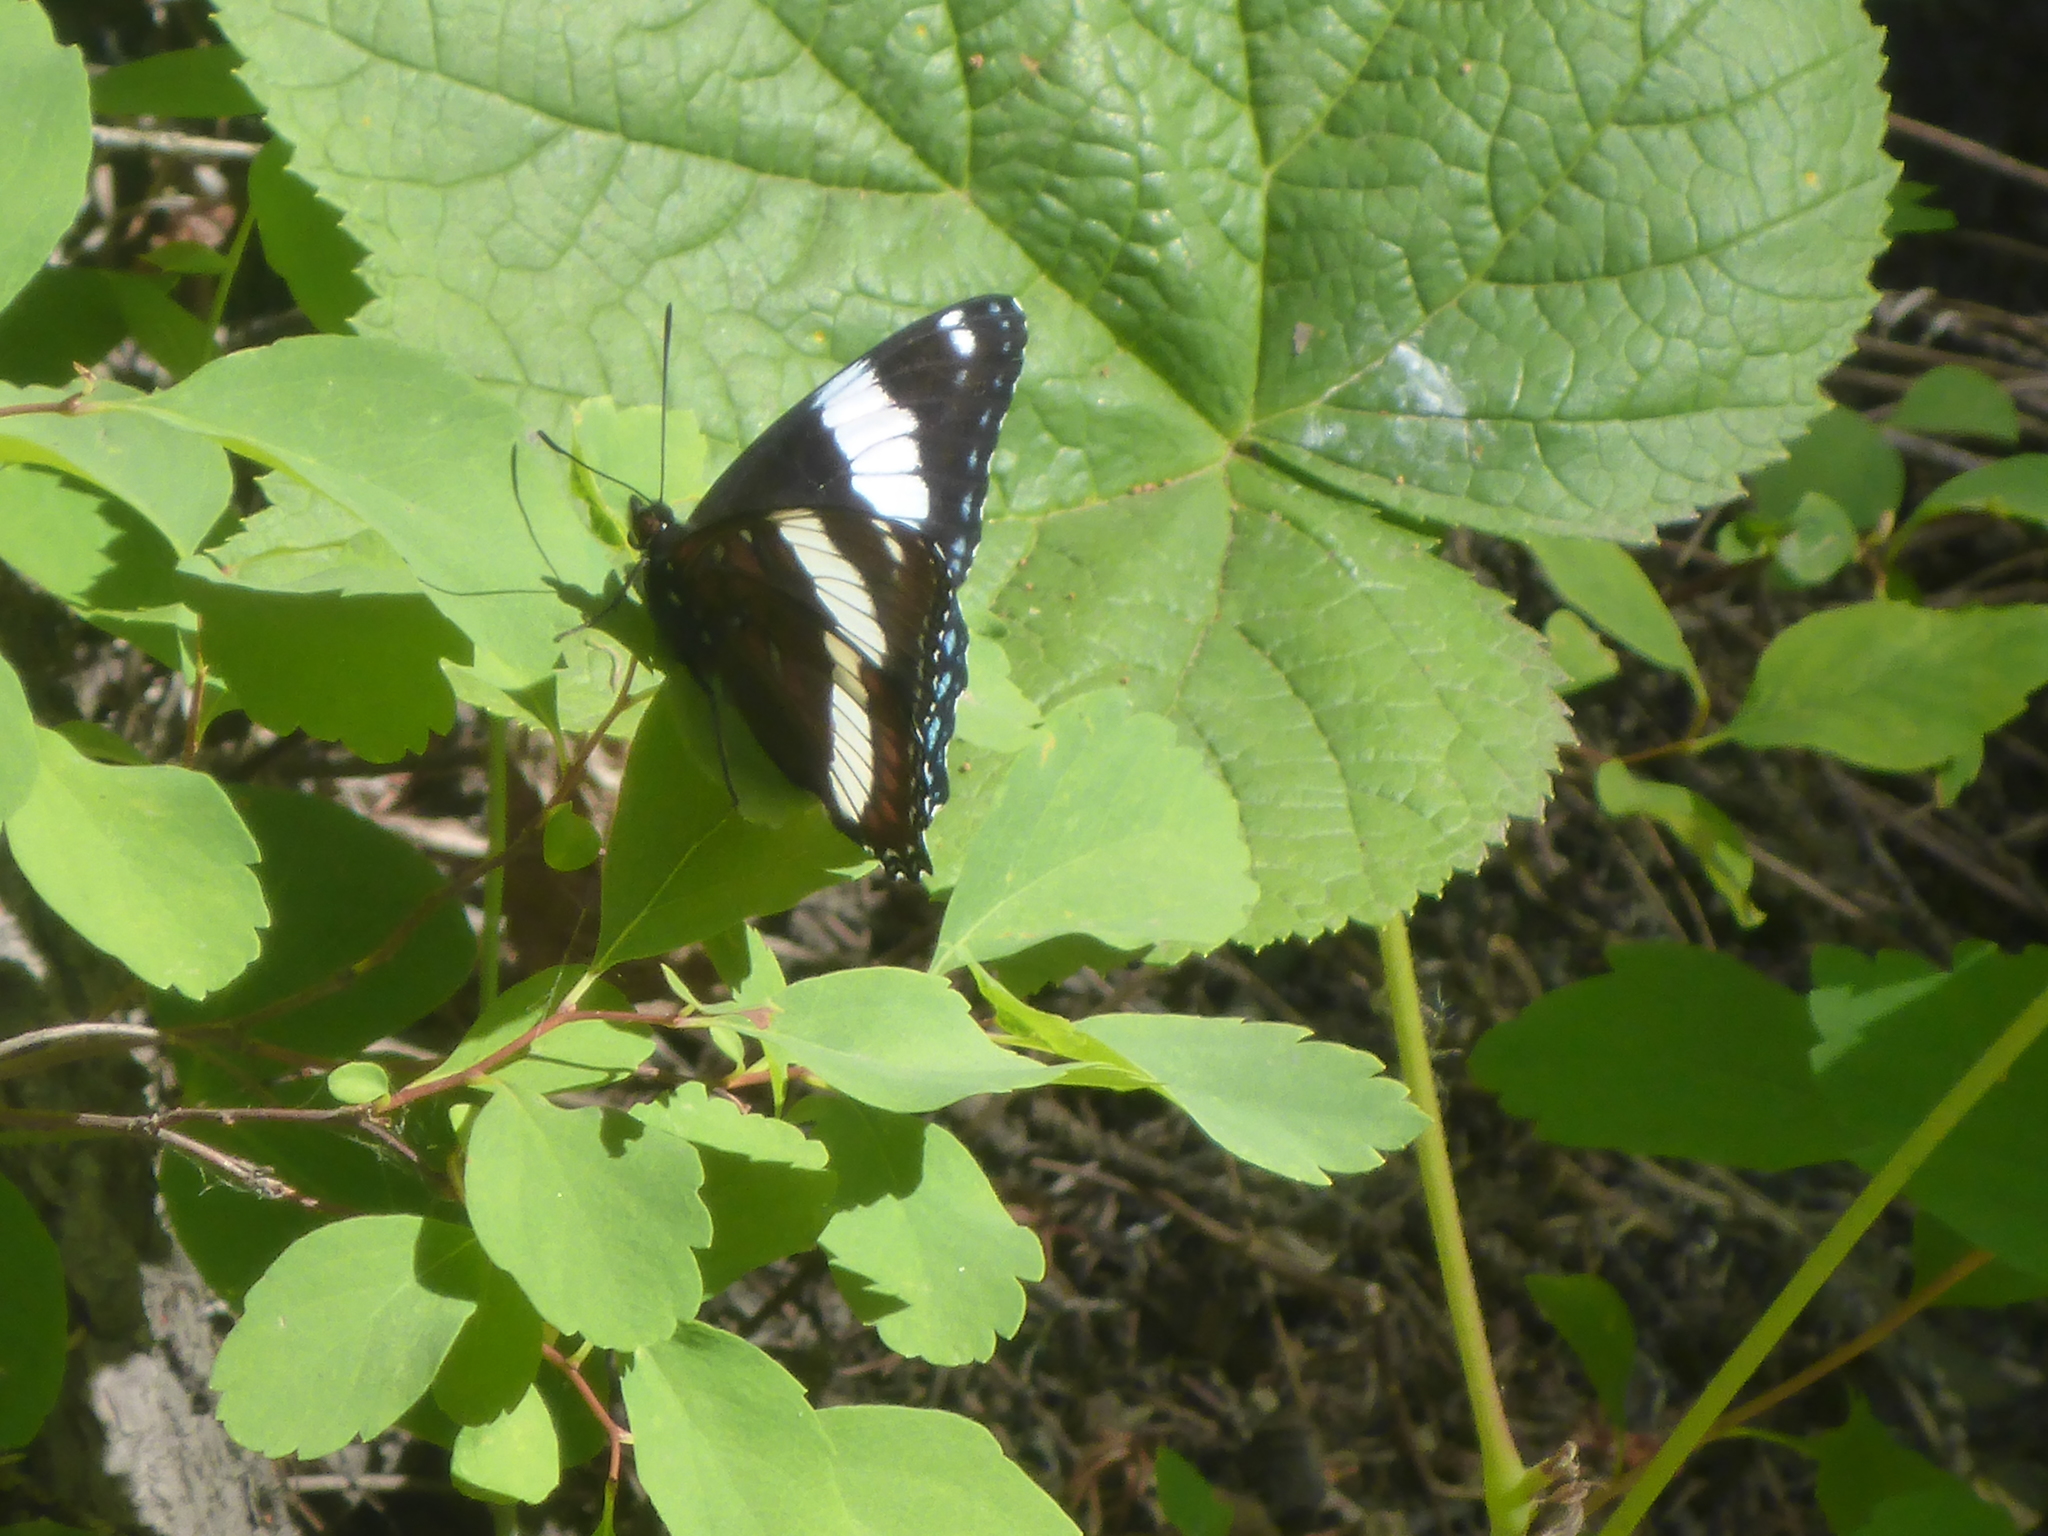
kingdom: Animalia
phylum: Arthropoda
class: Insecta
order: Lepidoptera
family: Nymphalidae
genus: Limenitis
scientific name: Limenitis arthemis
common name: Red-spotted admiral
